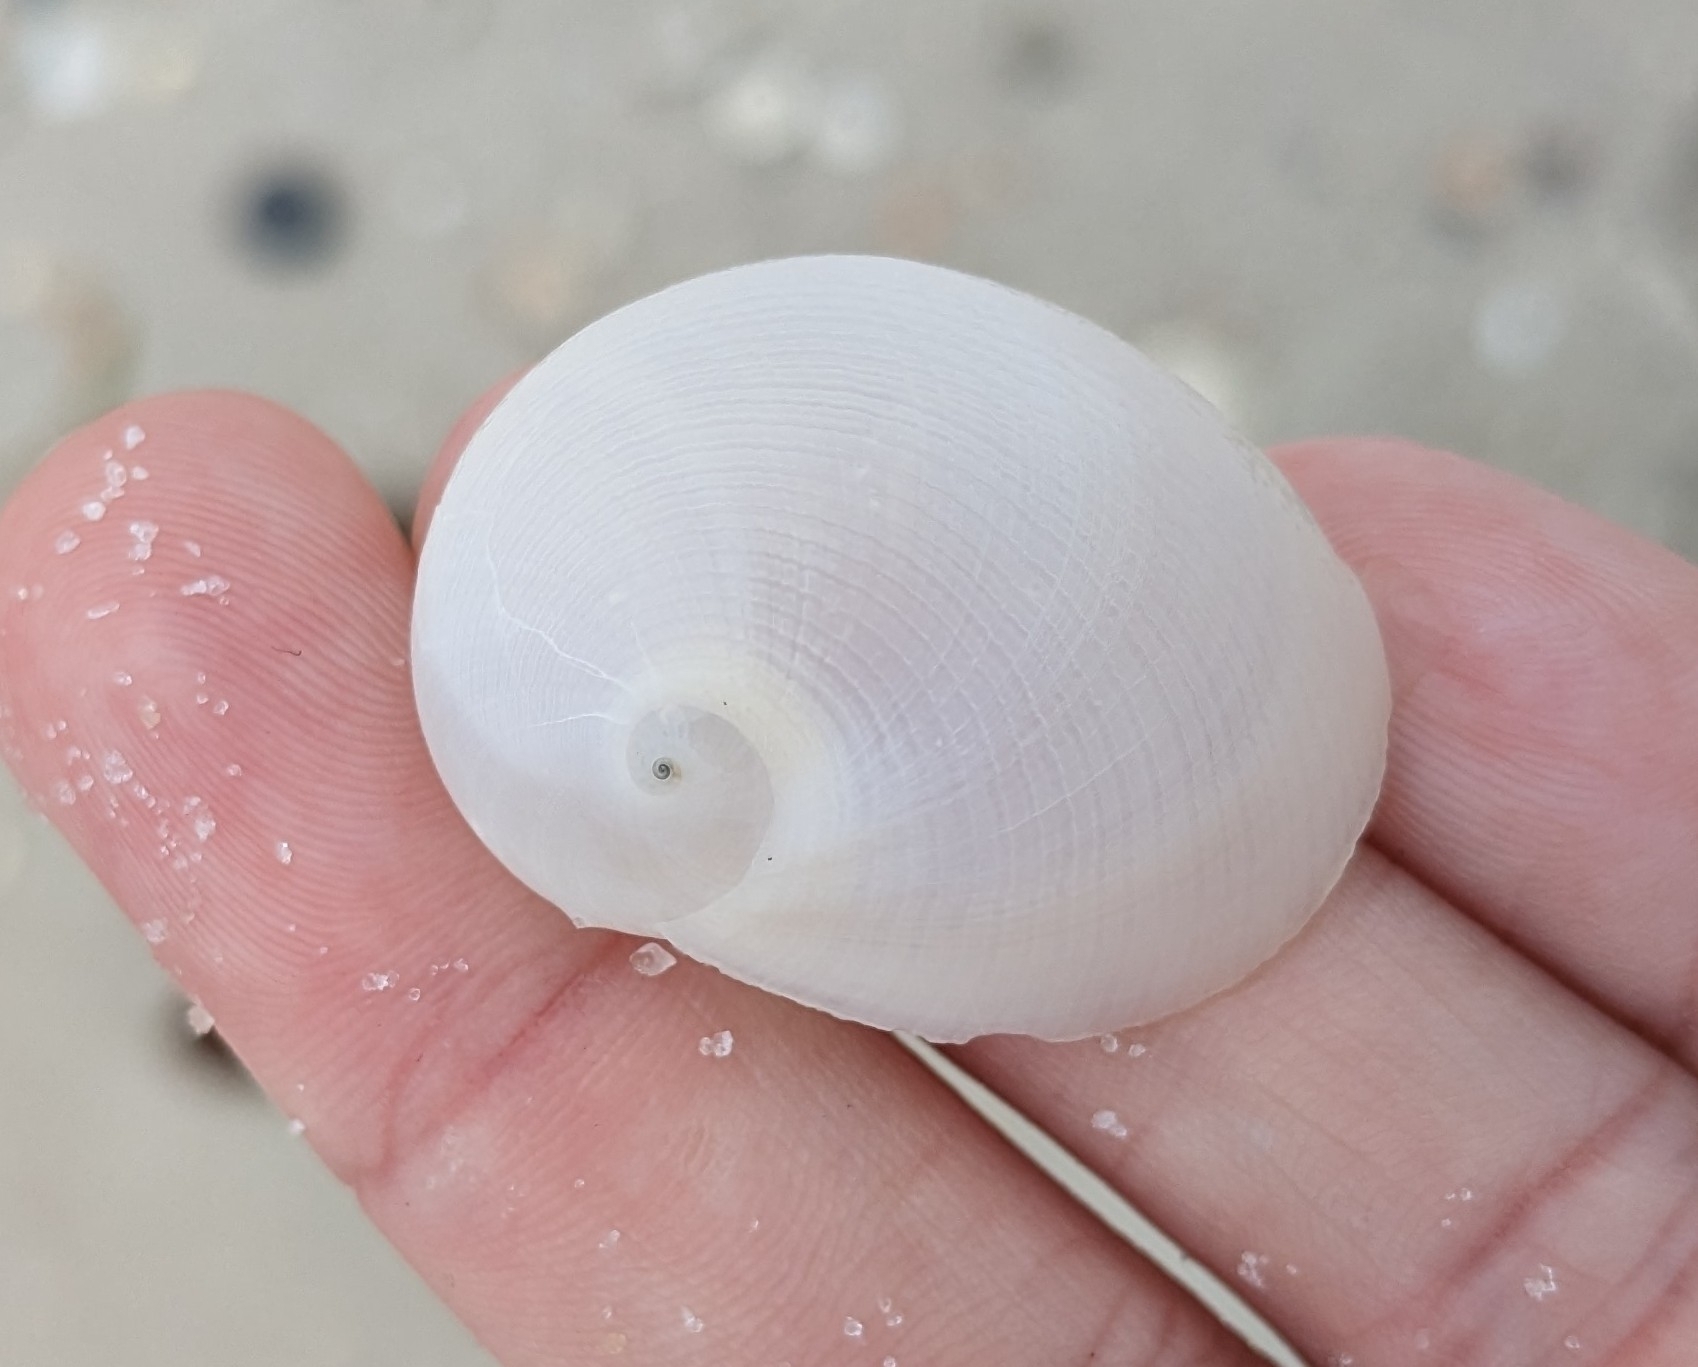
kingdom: Animalia
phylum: Mollusca
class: Gastropoda
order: Littorinimorpha
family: Naticidae
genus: Sinum
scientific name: Sinum perspectivum
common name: White baby ear
